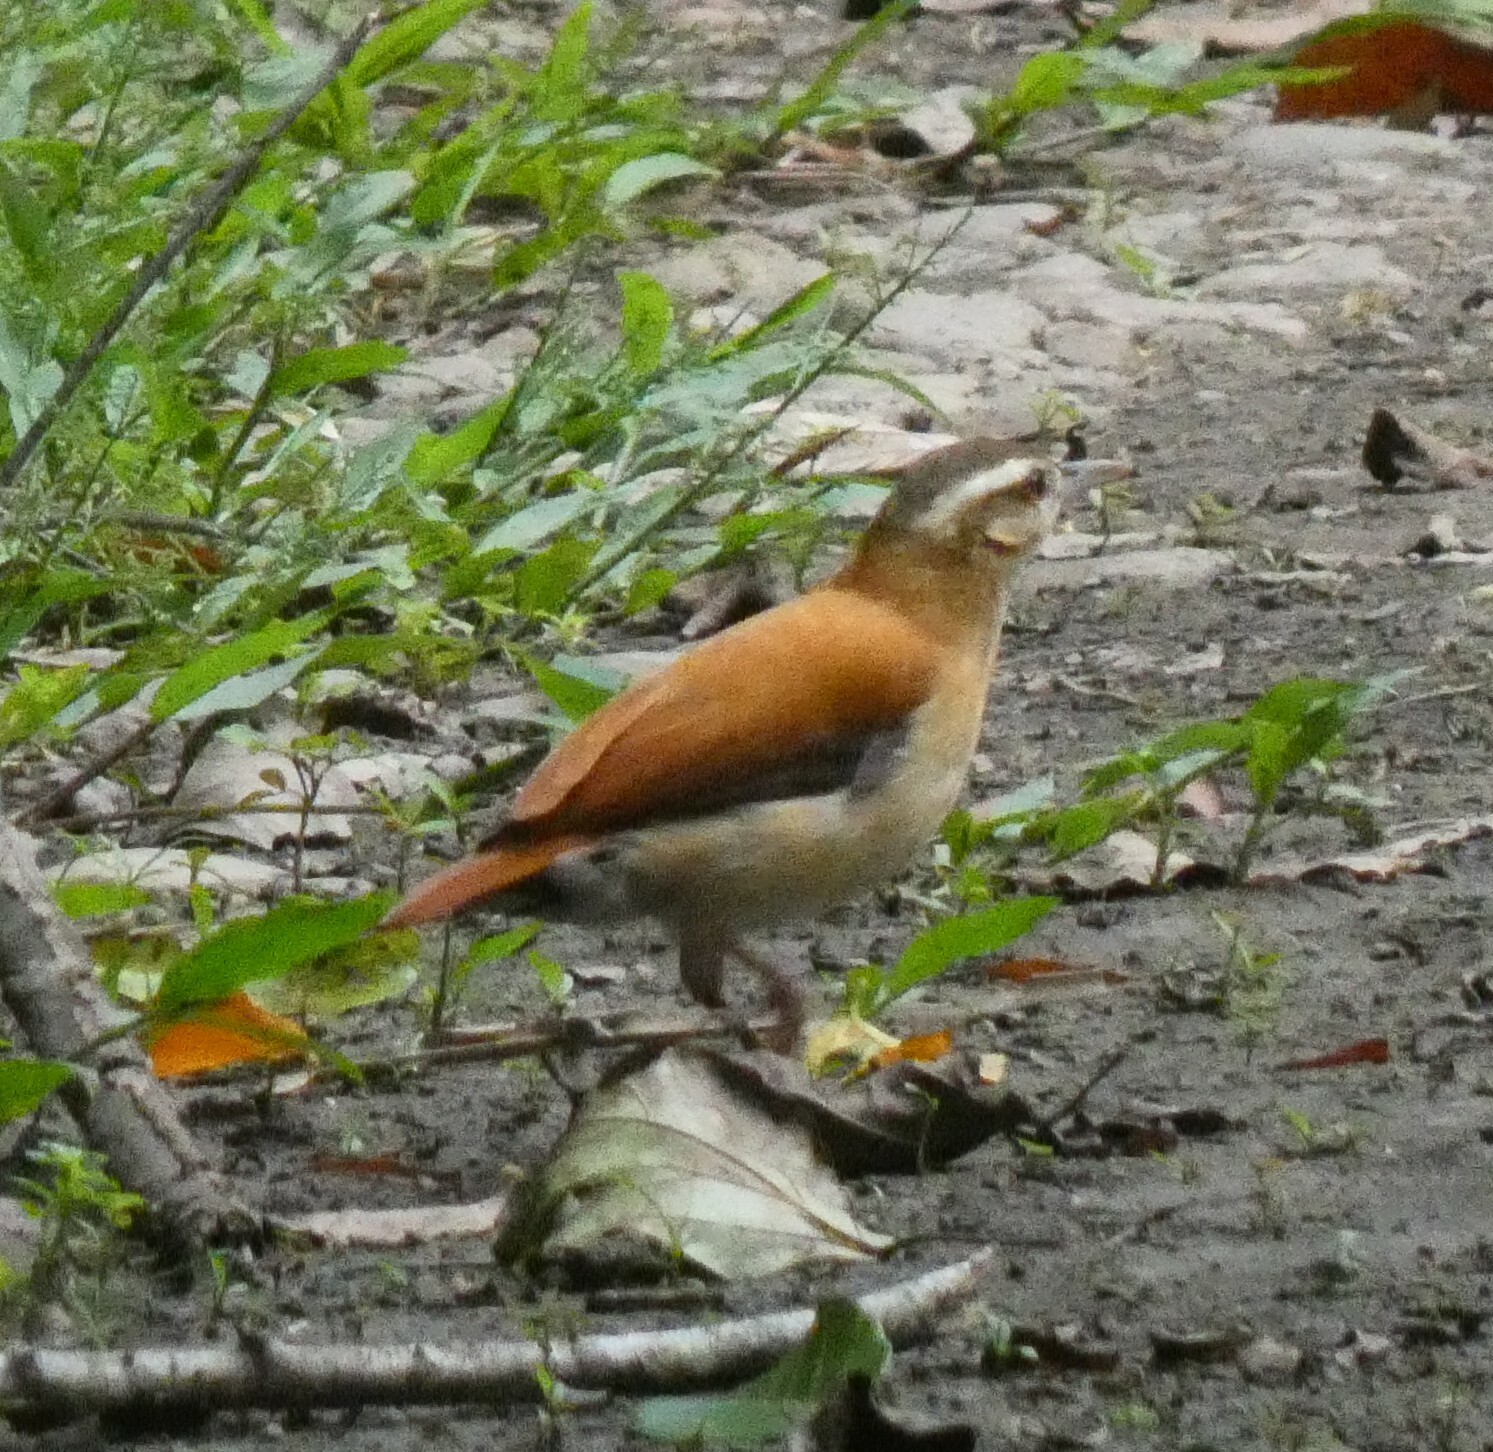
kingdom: Animalia
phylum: Chordata
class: Aves
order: Passeriformes
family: Furnariidae
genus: Furnarius
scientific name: Furnarius leucopus
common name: Pale-legged hornero
